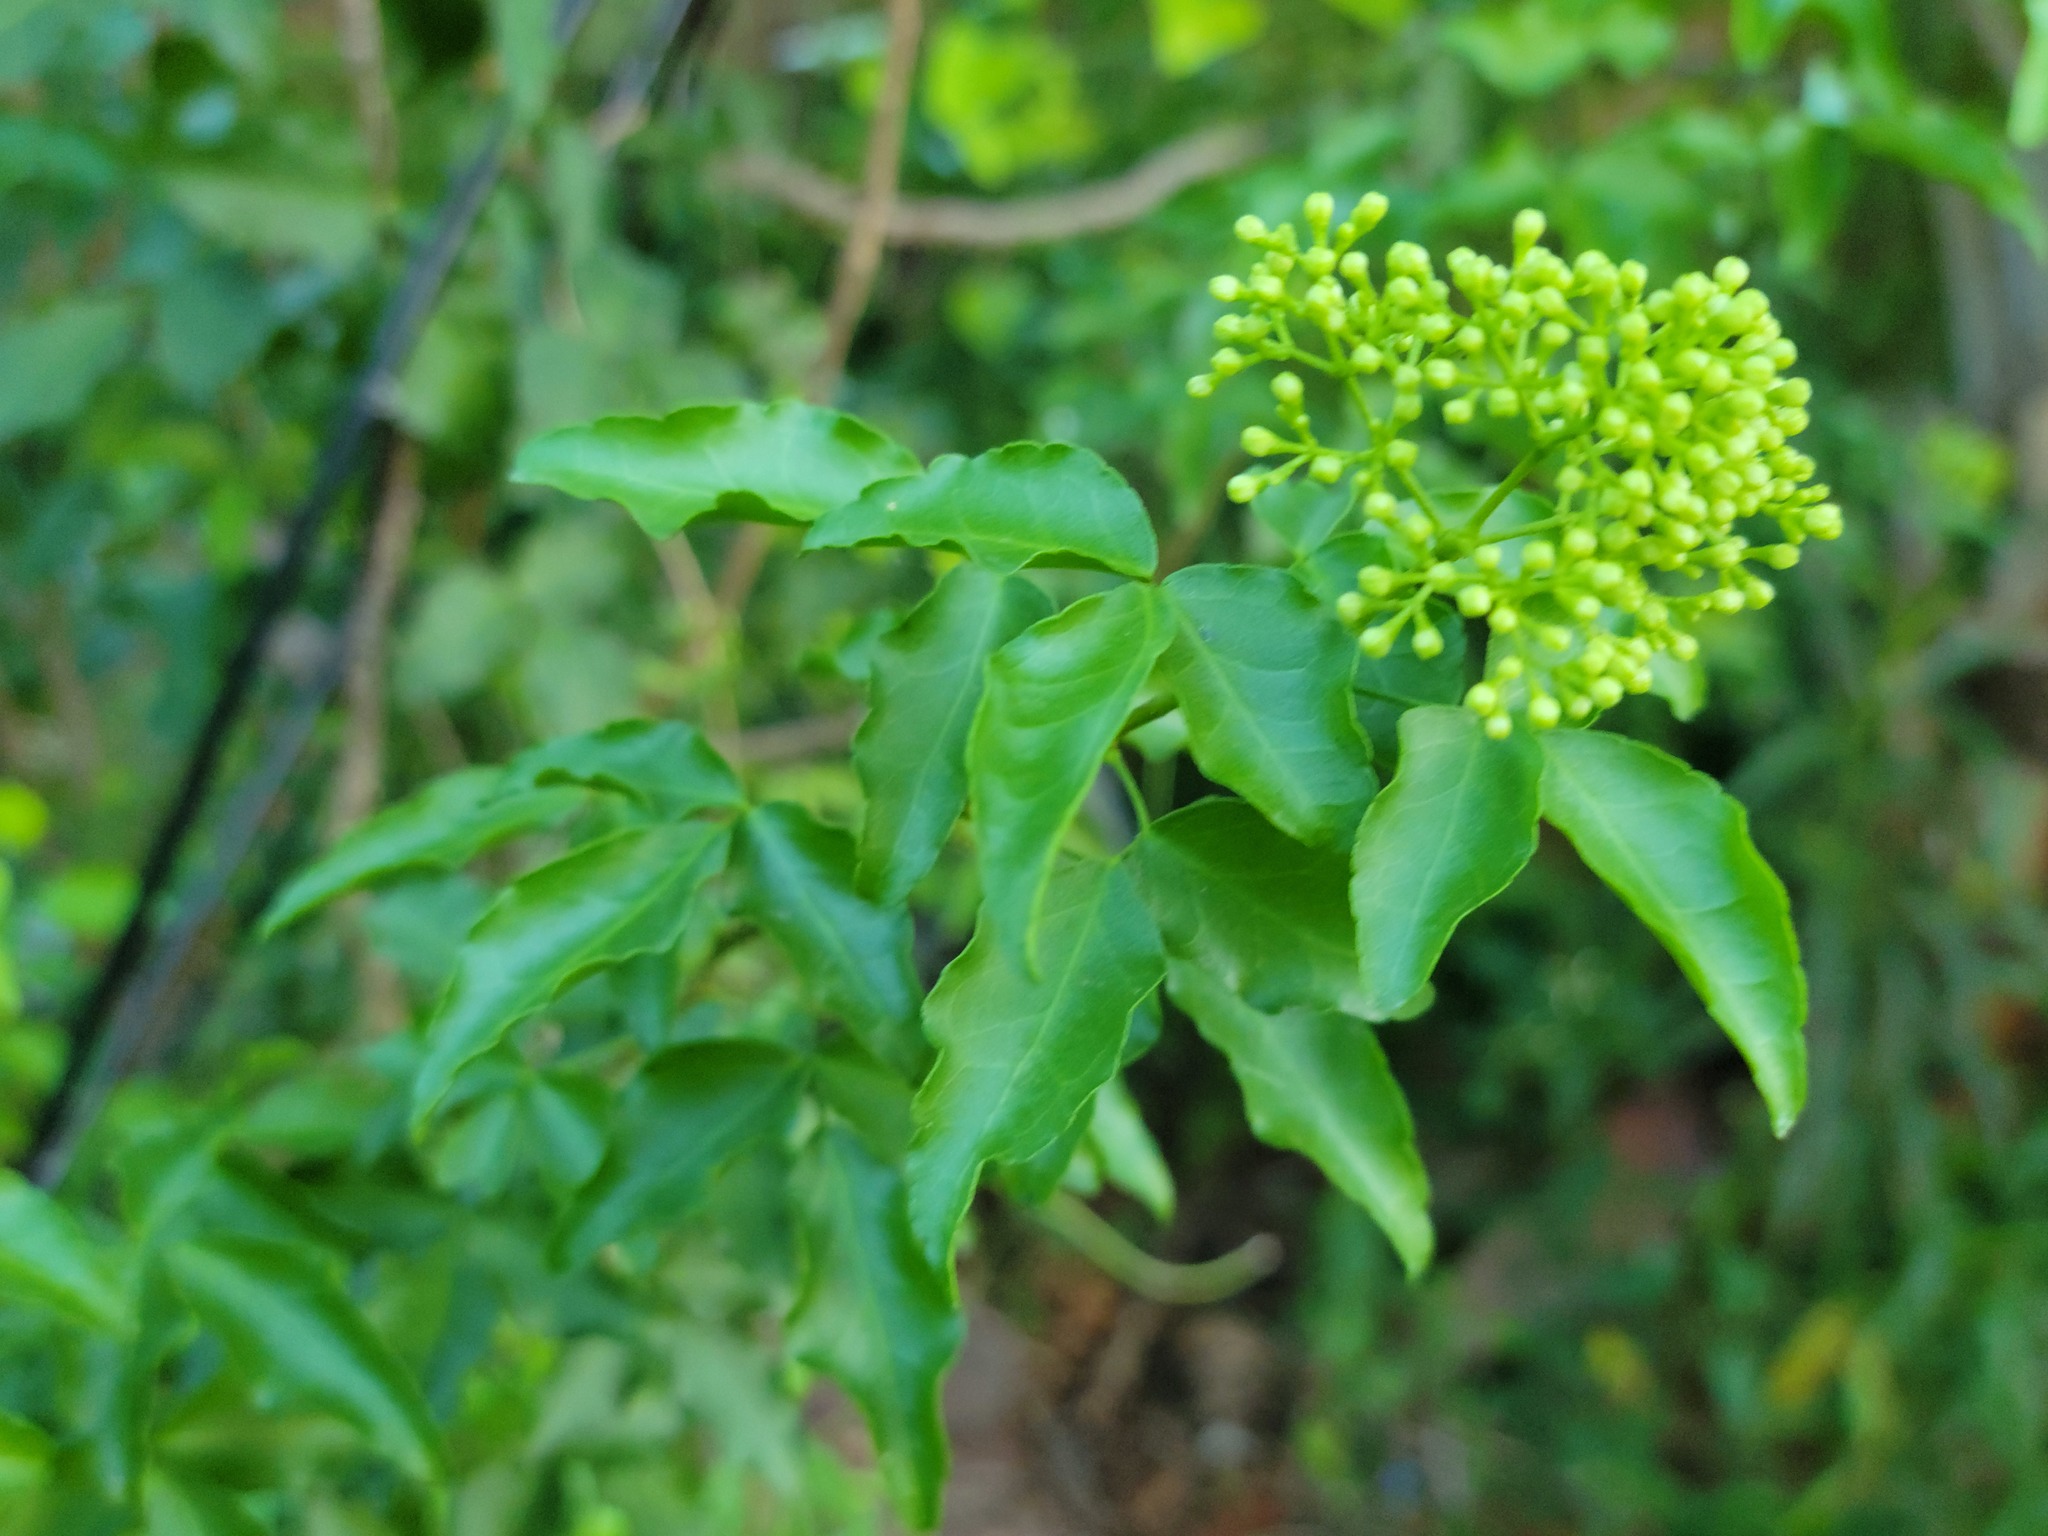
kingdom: Plantae
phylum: Tracheophyta
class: Magnoliopsida
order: Sapindales
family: Rutaceae
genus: Amyris
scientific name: Amyris texana
